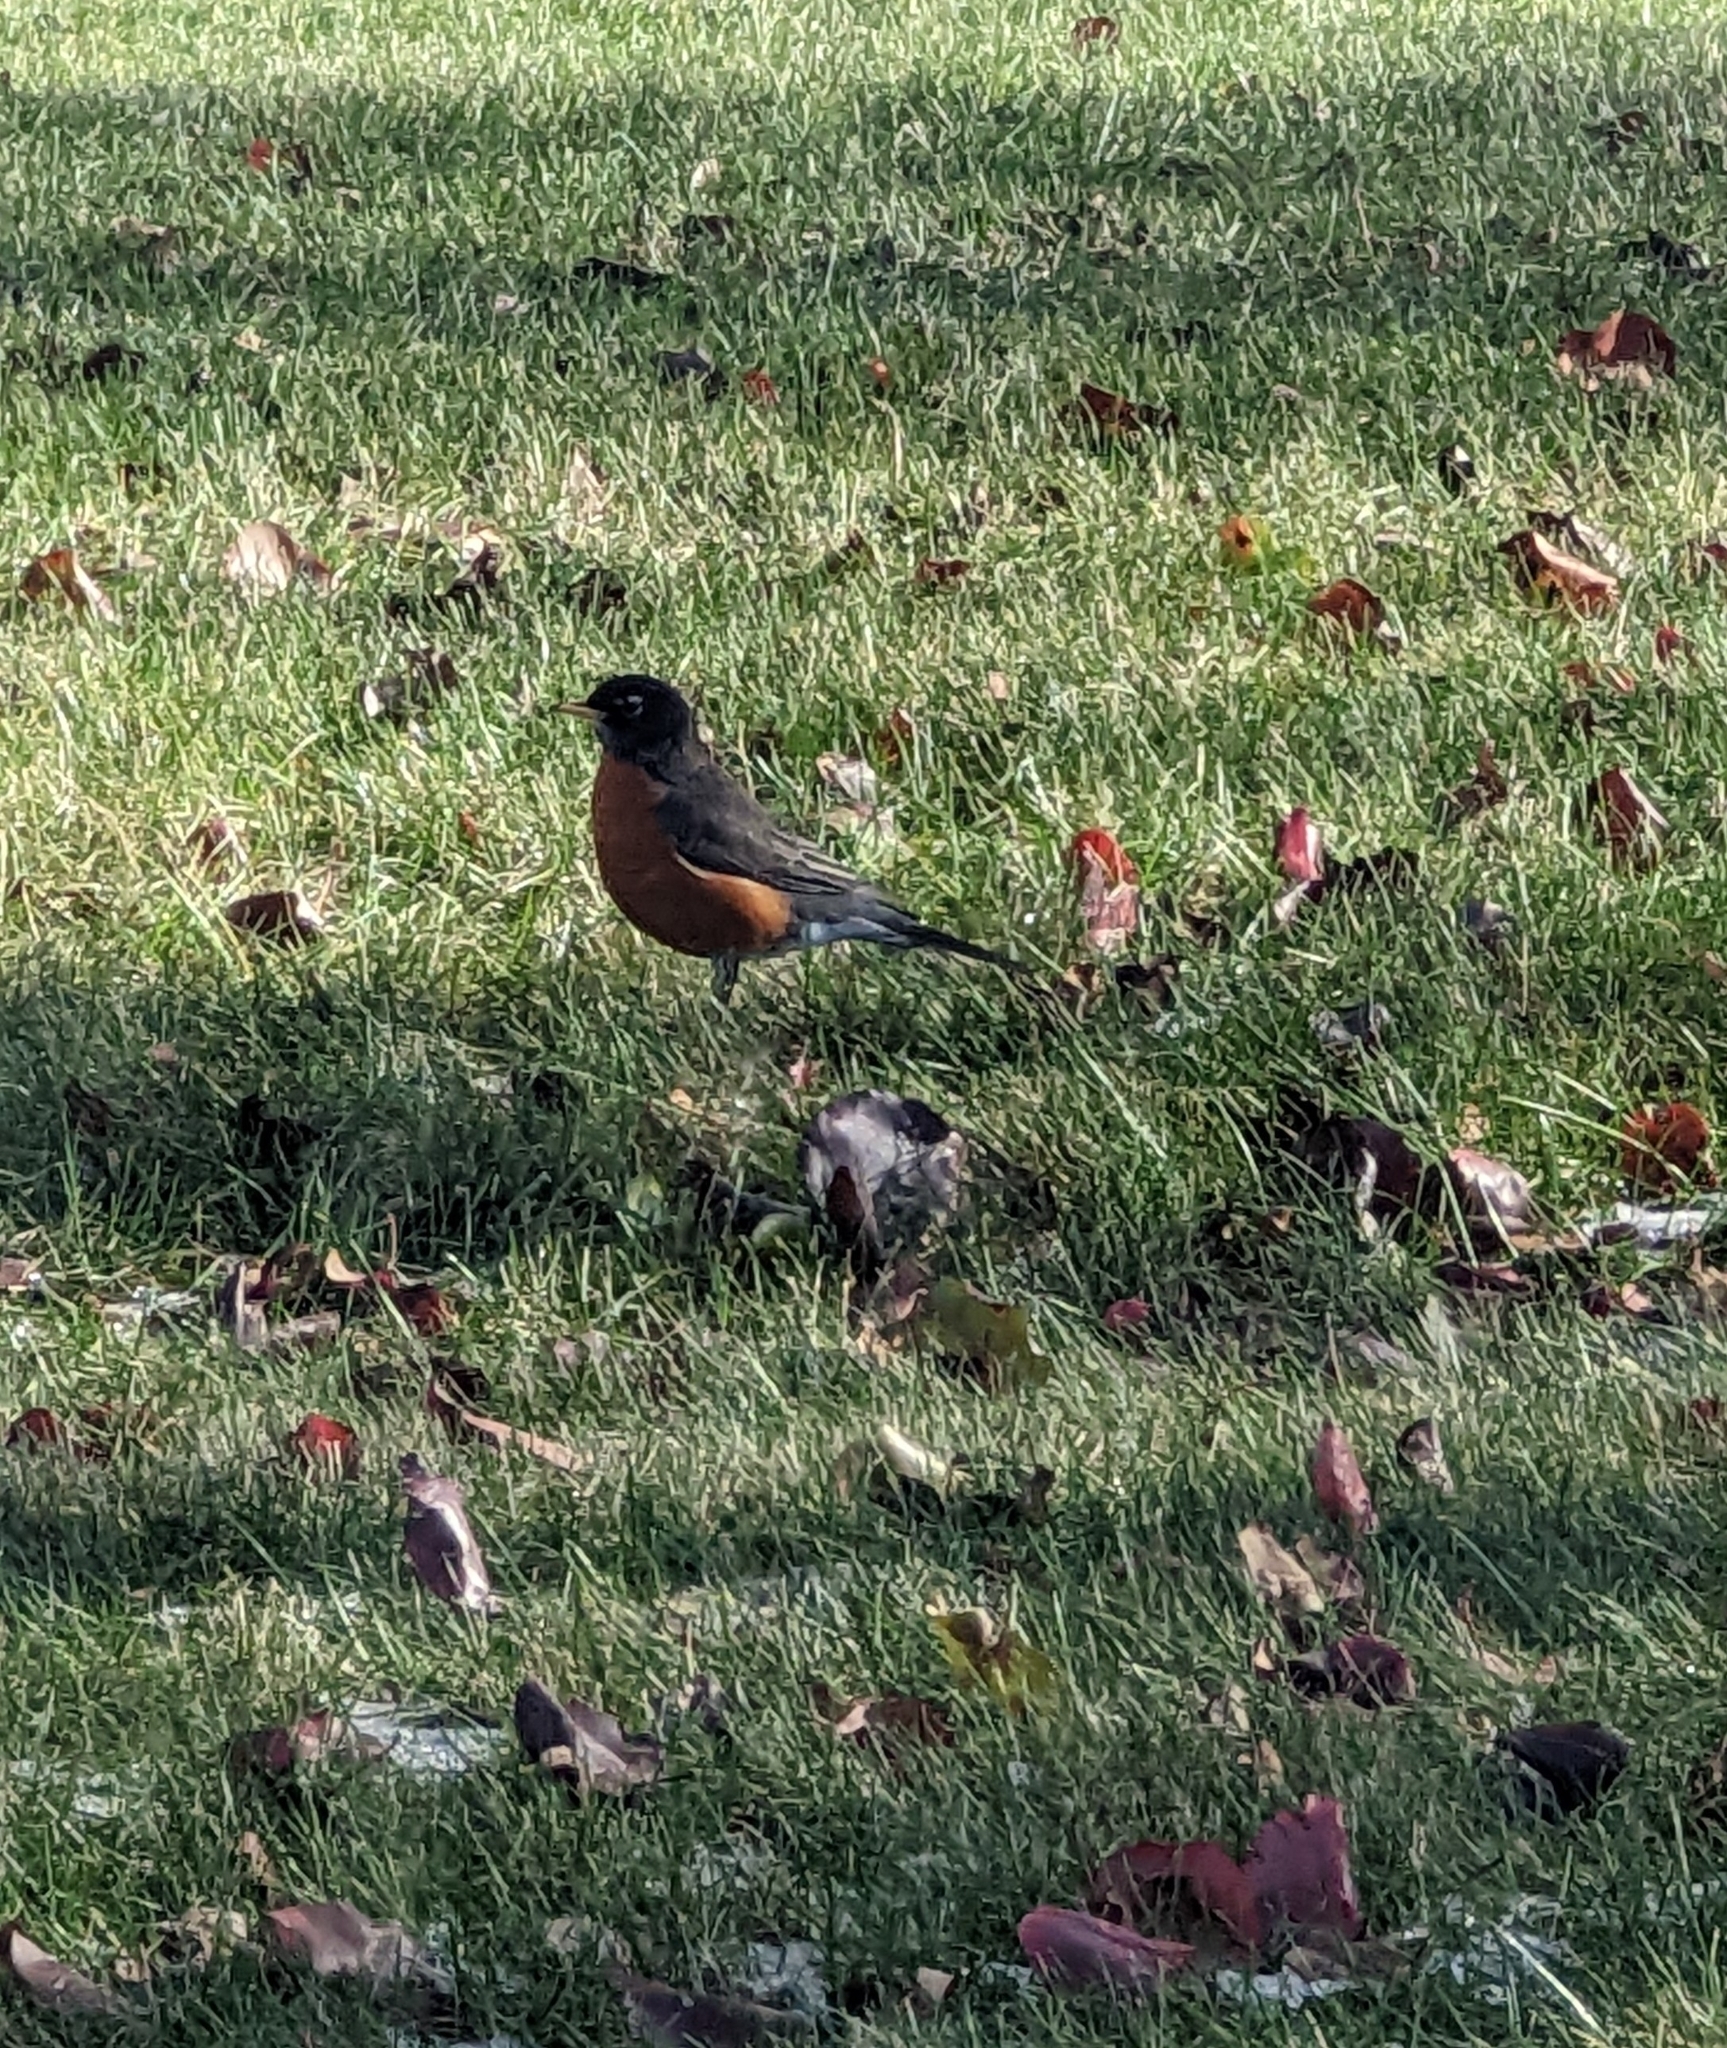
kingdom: Animalia
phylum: Chordata
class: Aves
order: Passeriformes
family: Turdidae
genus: Turdus
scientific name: Turdus migratorius
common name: American robin
